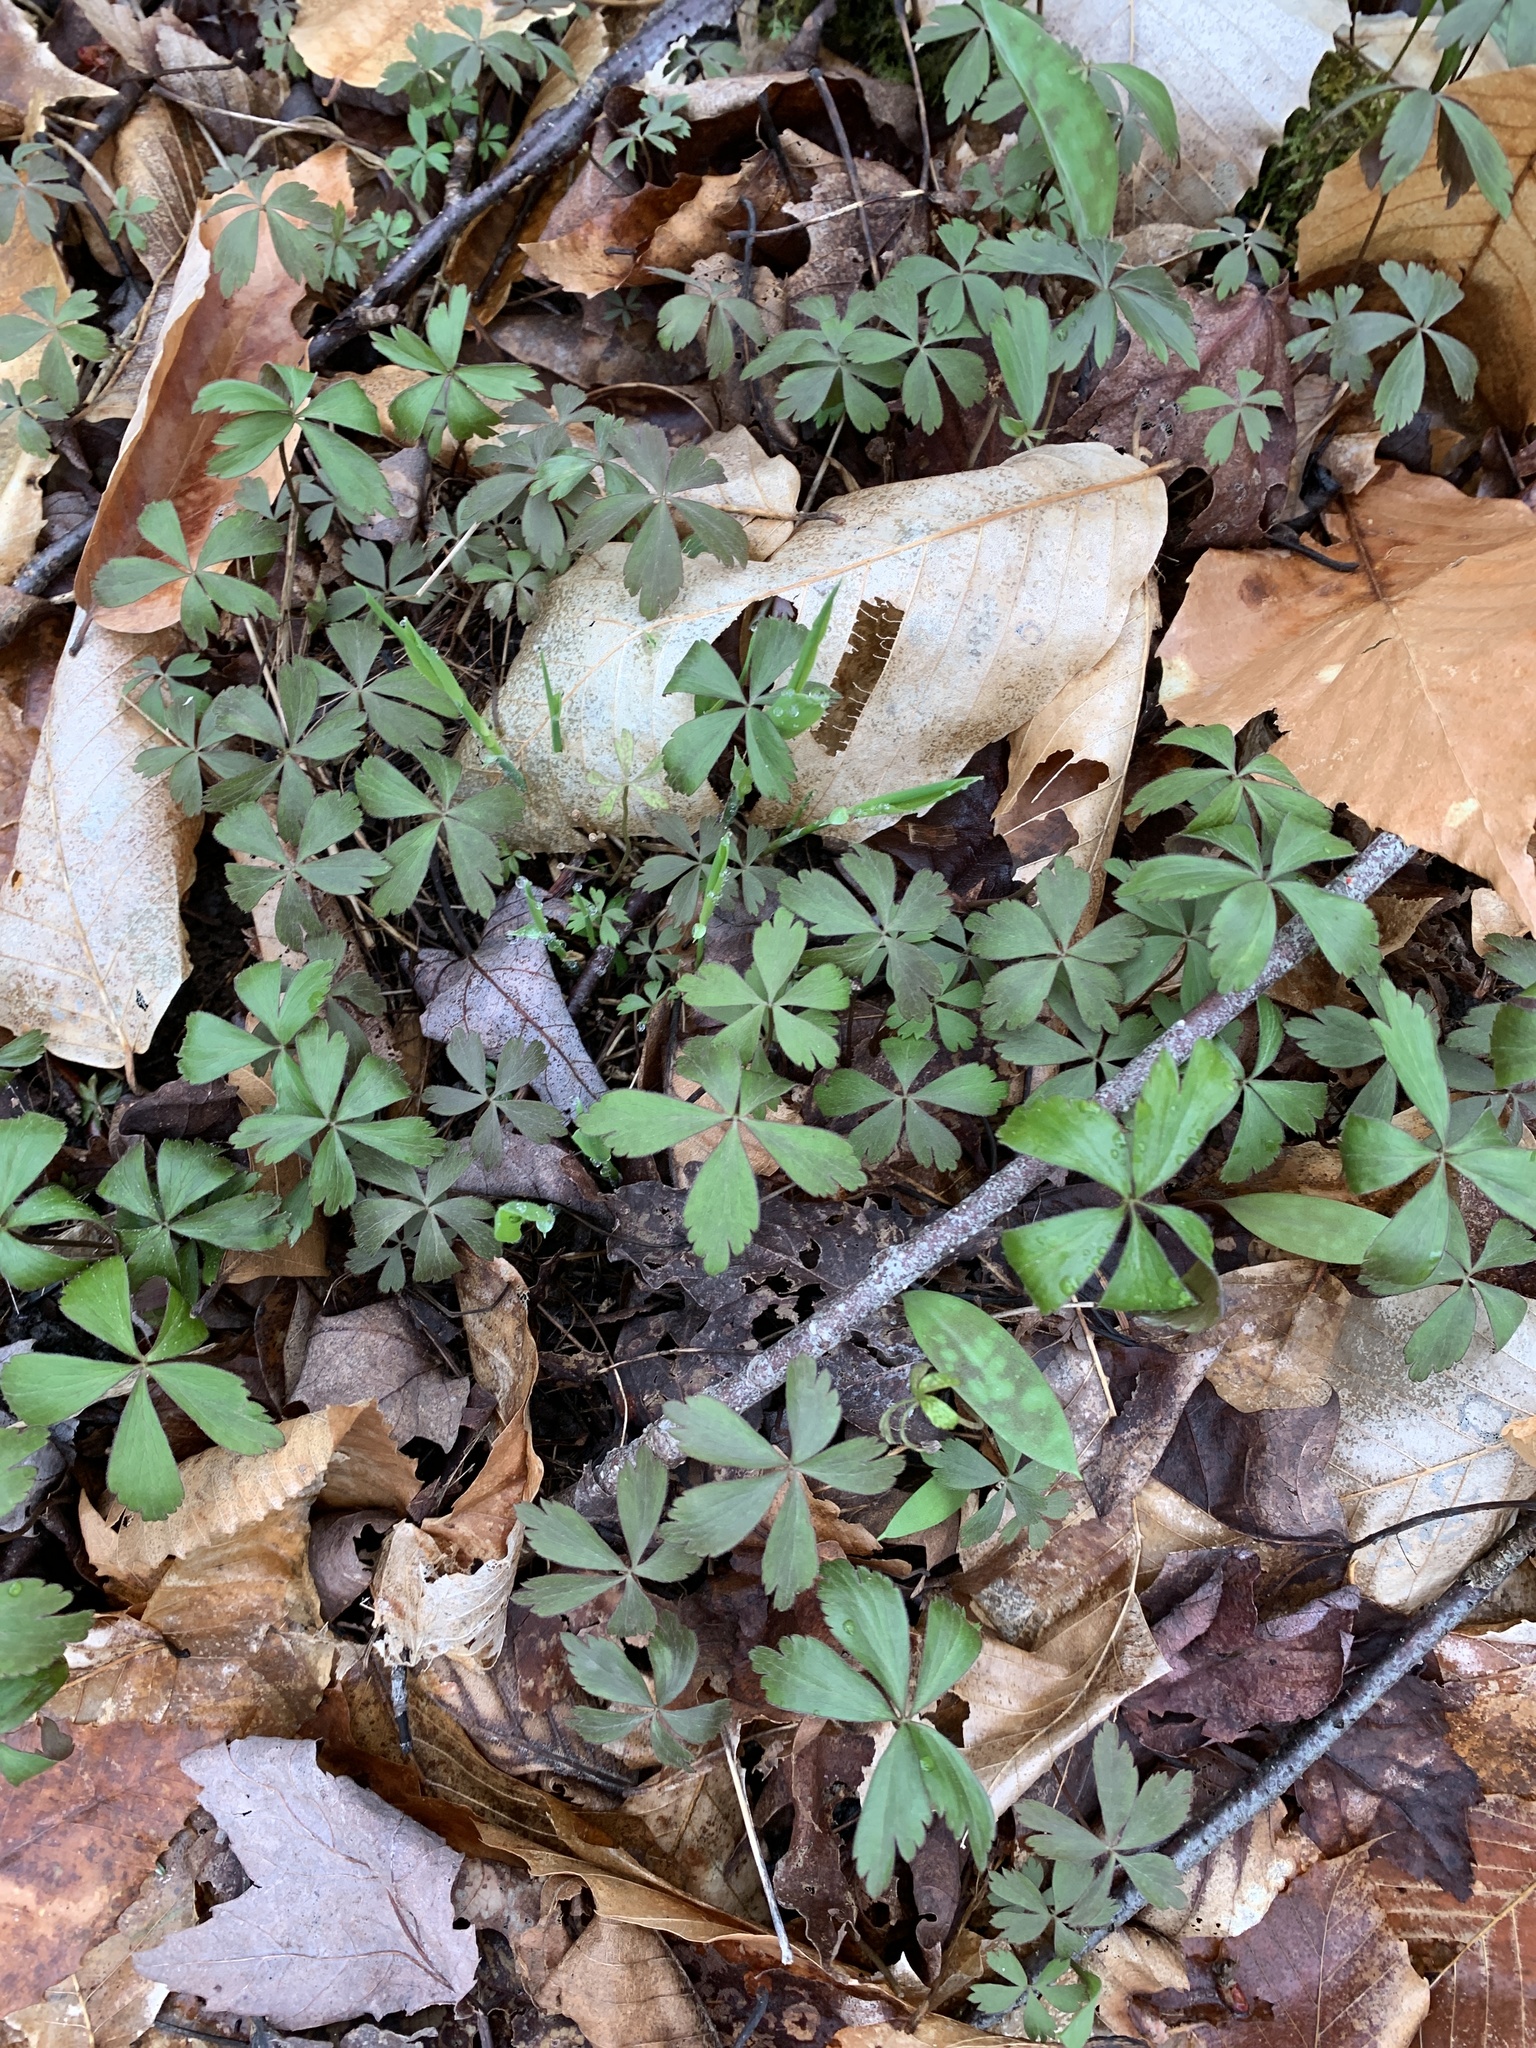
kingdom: Plantae
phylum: Tracheophyta
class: Magnoliopsida
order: Ranunculales
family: Ranunculaceae
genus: Anemone
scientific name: Anemone quinquefolia
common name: Wood anemone
